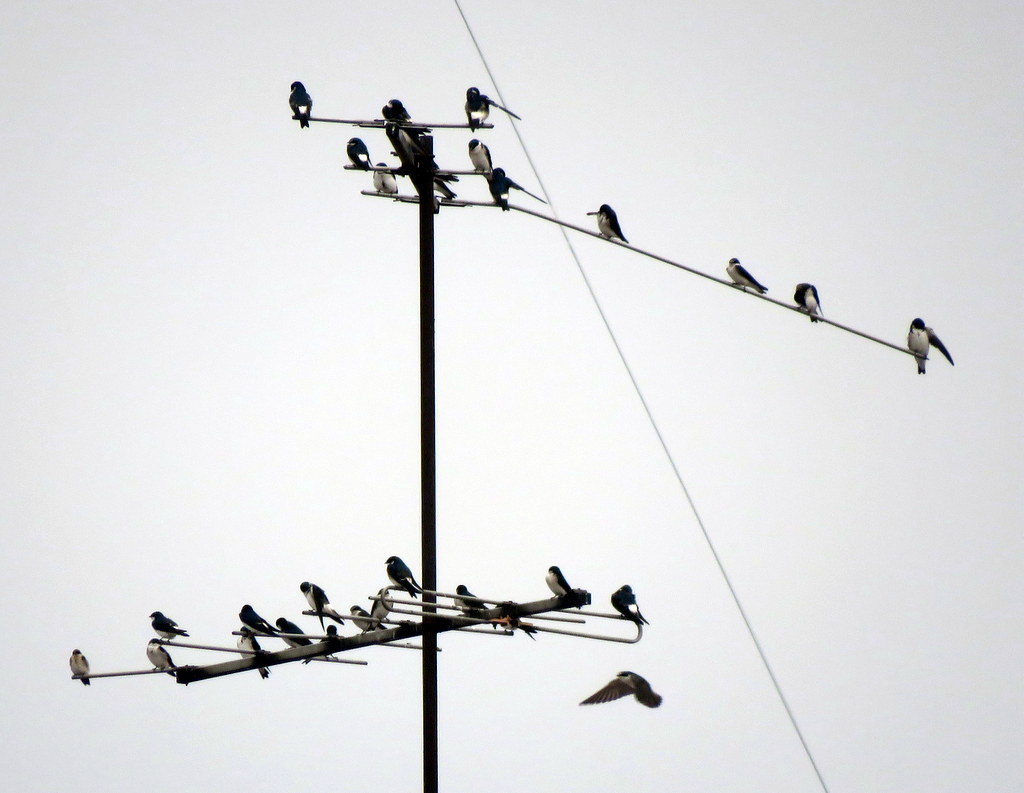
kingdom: Animalia
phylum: Chordata
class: Aves
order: Passeriformes
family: Hirundinidae
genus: Tachycineta
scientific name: Tachycineta leucorrhoa
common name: White-rumped swallow
